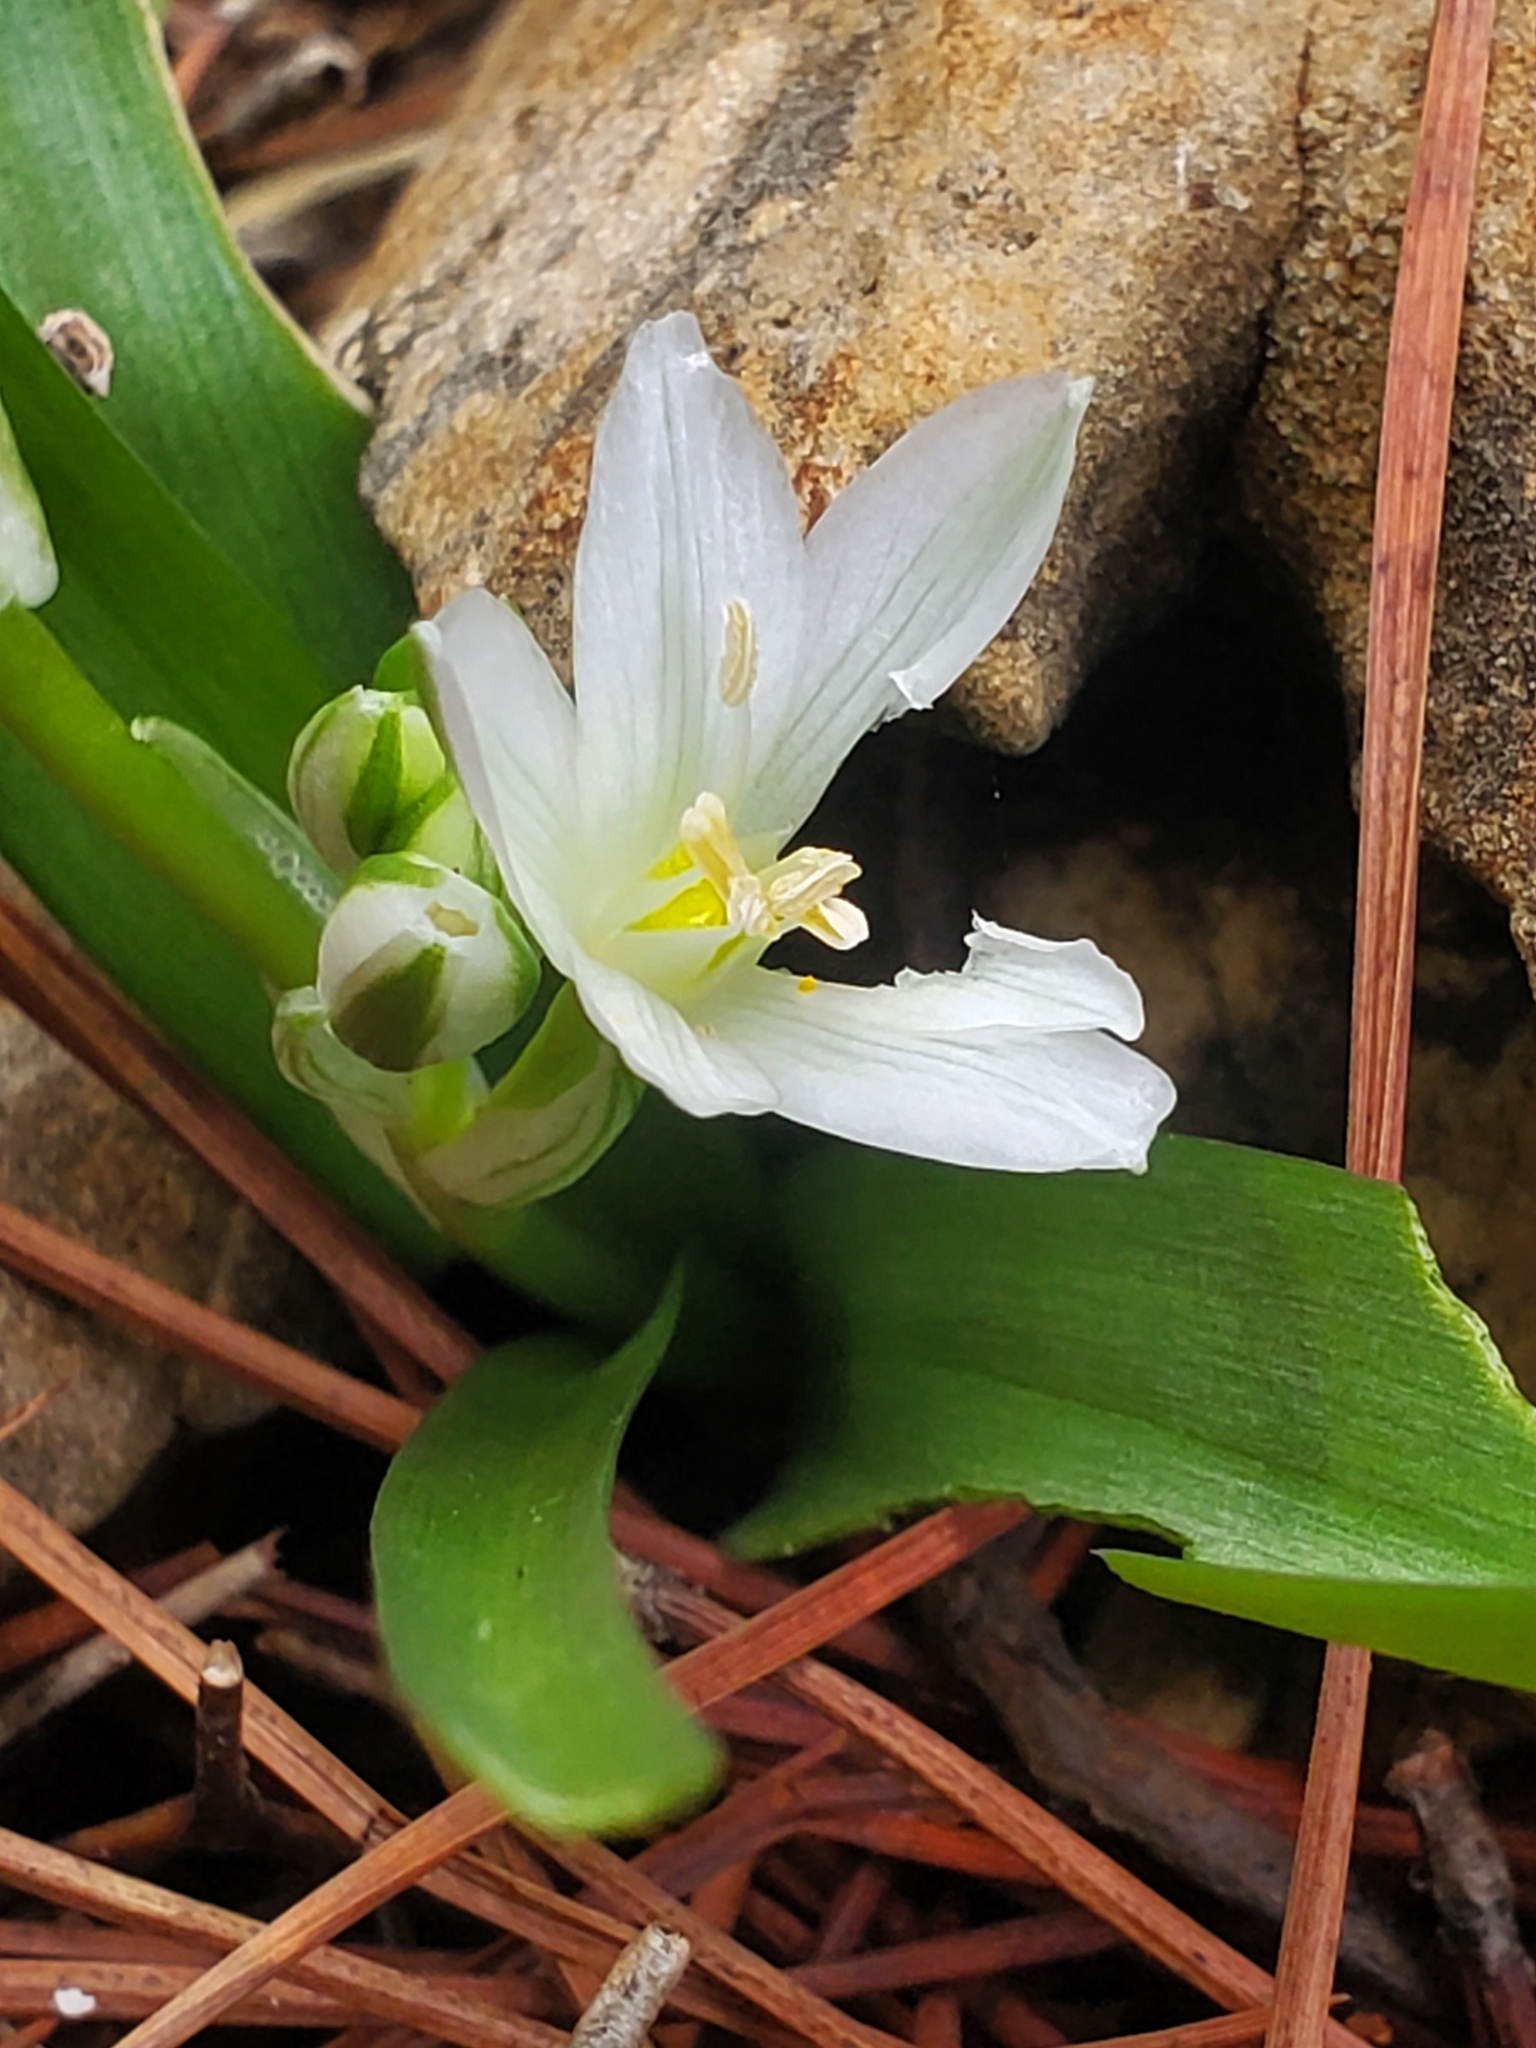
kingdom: Plantae
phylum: Tracheophyta
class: Liliopsida
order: Asparagales
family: Asparagaceae
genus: Ornithogalum
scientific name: Ornithogalum lanceolatum
